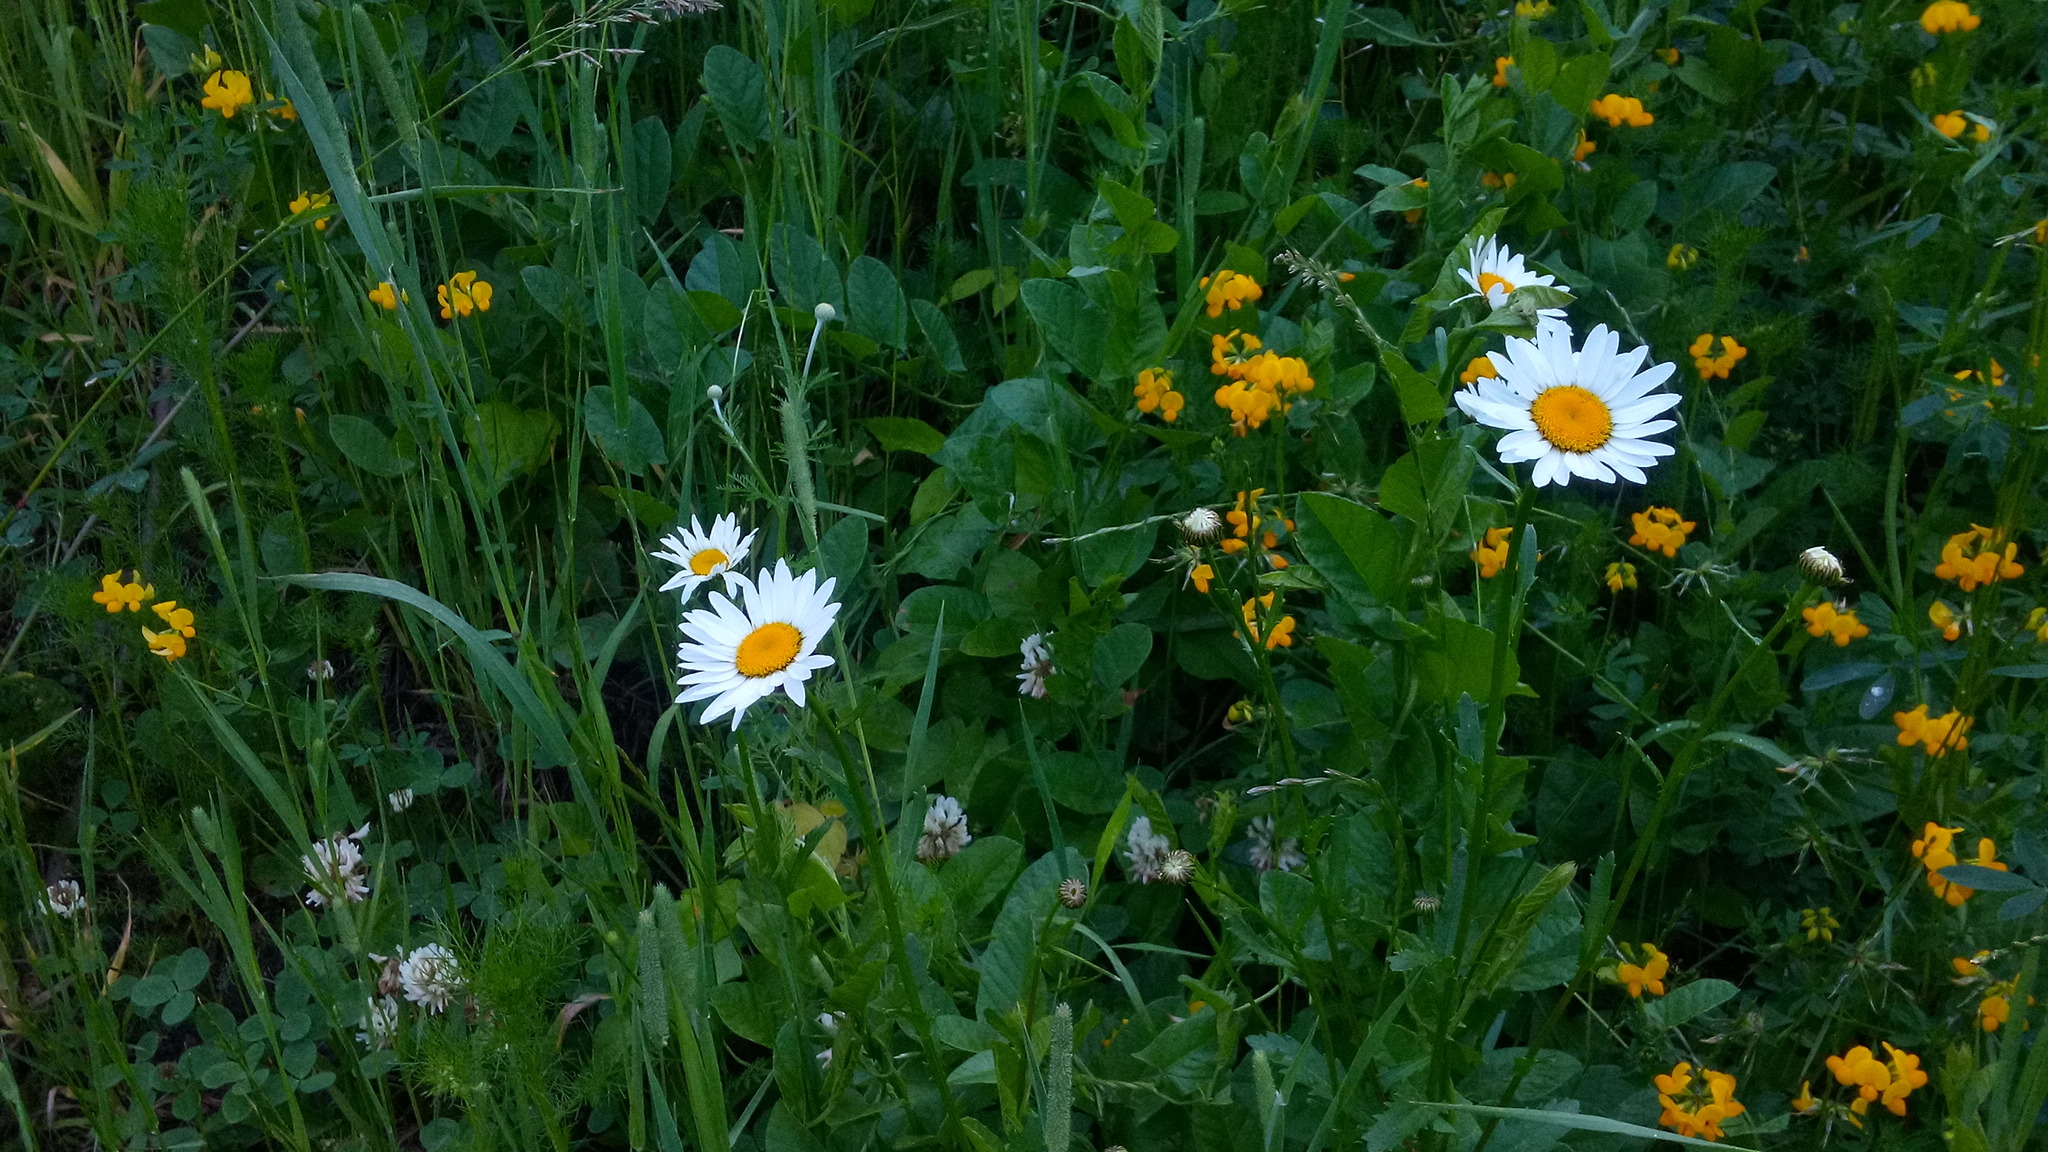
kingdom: Plantae
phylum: Tracheophyta
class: Magnoliopsida
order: Asterales
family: Asteraceae
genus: Leucanthemum
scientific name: Leucanthemum vulgare
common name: Oxeye daisy
